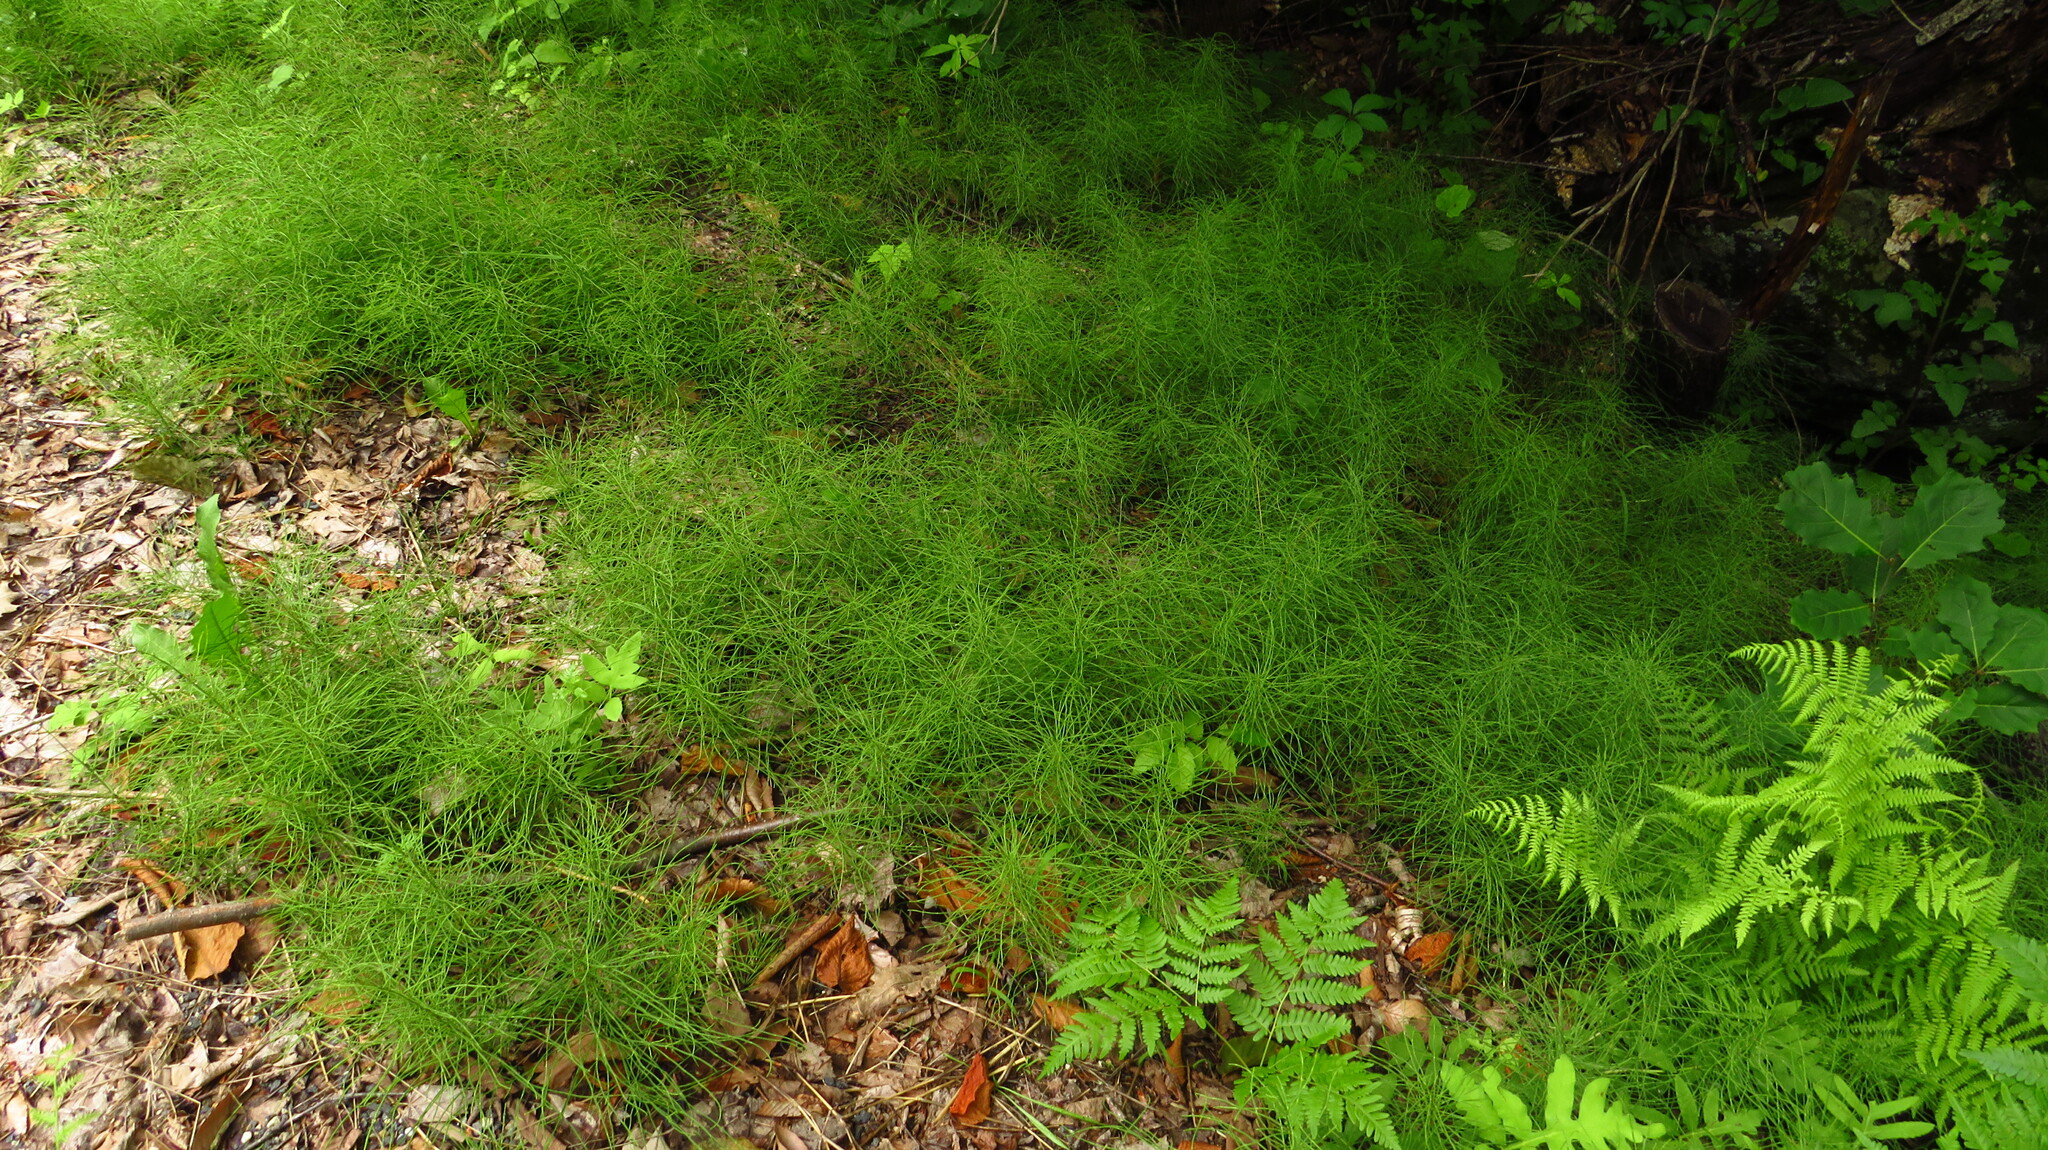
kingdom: Plantae
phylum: Tracheophyta
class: Polypodiopsida
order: Equisetales
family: Equisetaceae
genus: Equisetum
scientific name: Equisetum pratense
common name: Meadow horsetail
